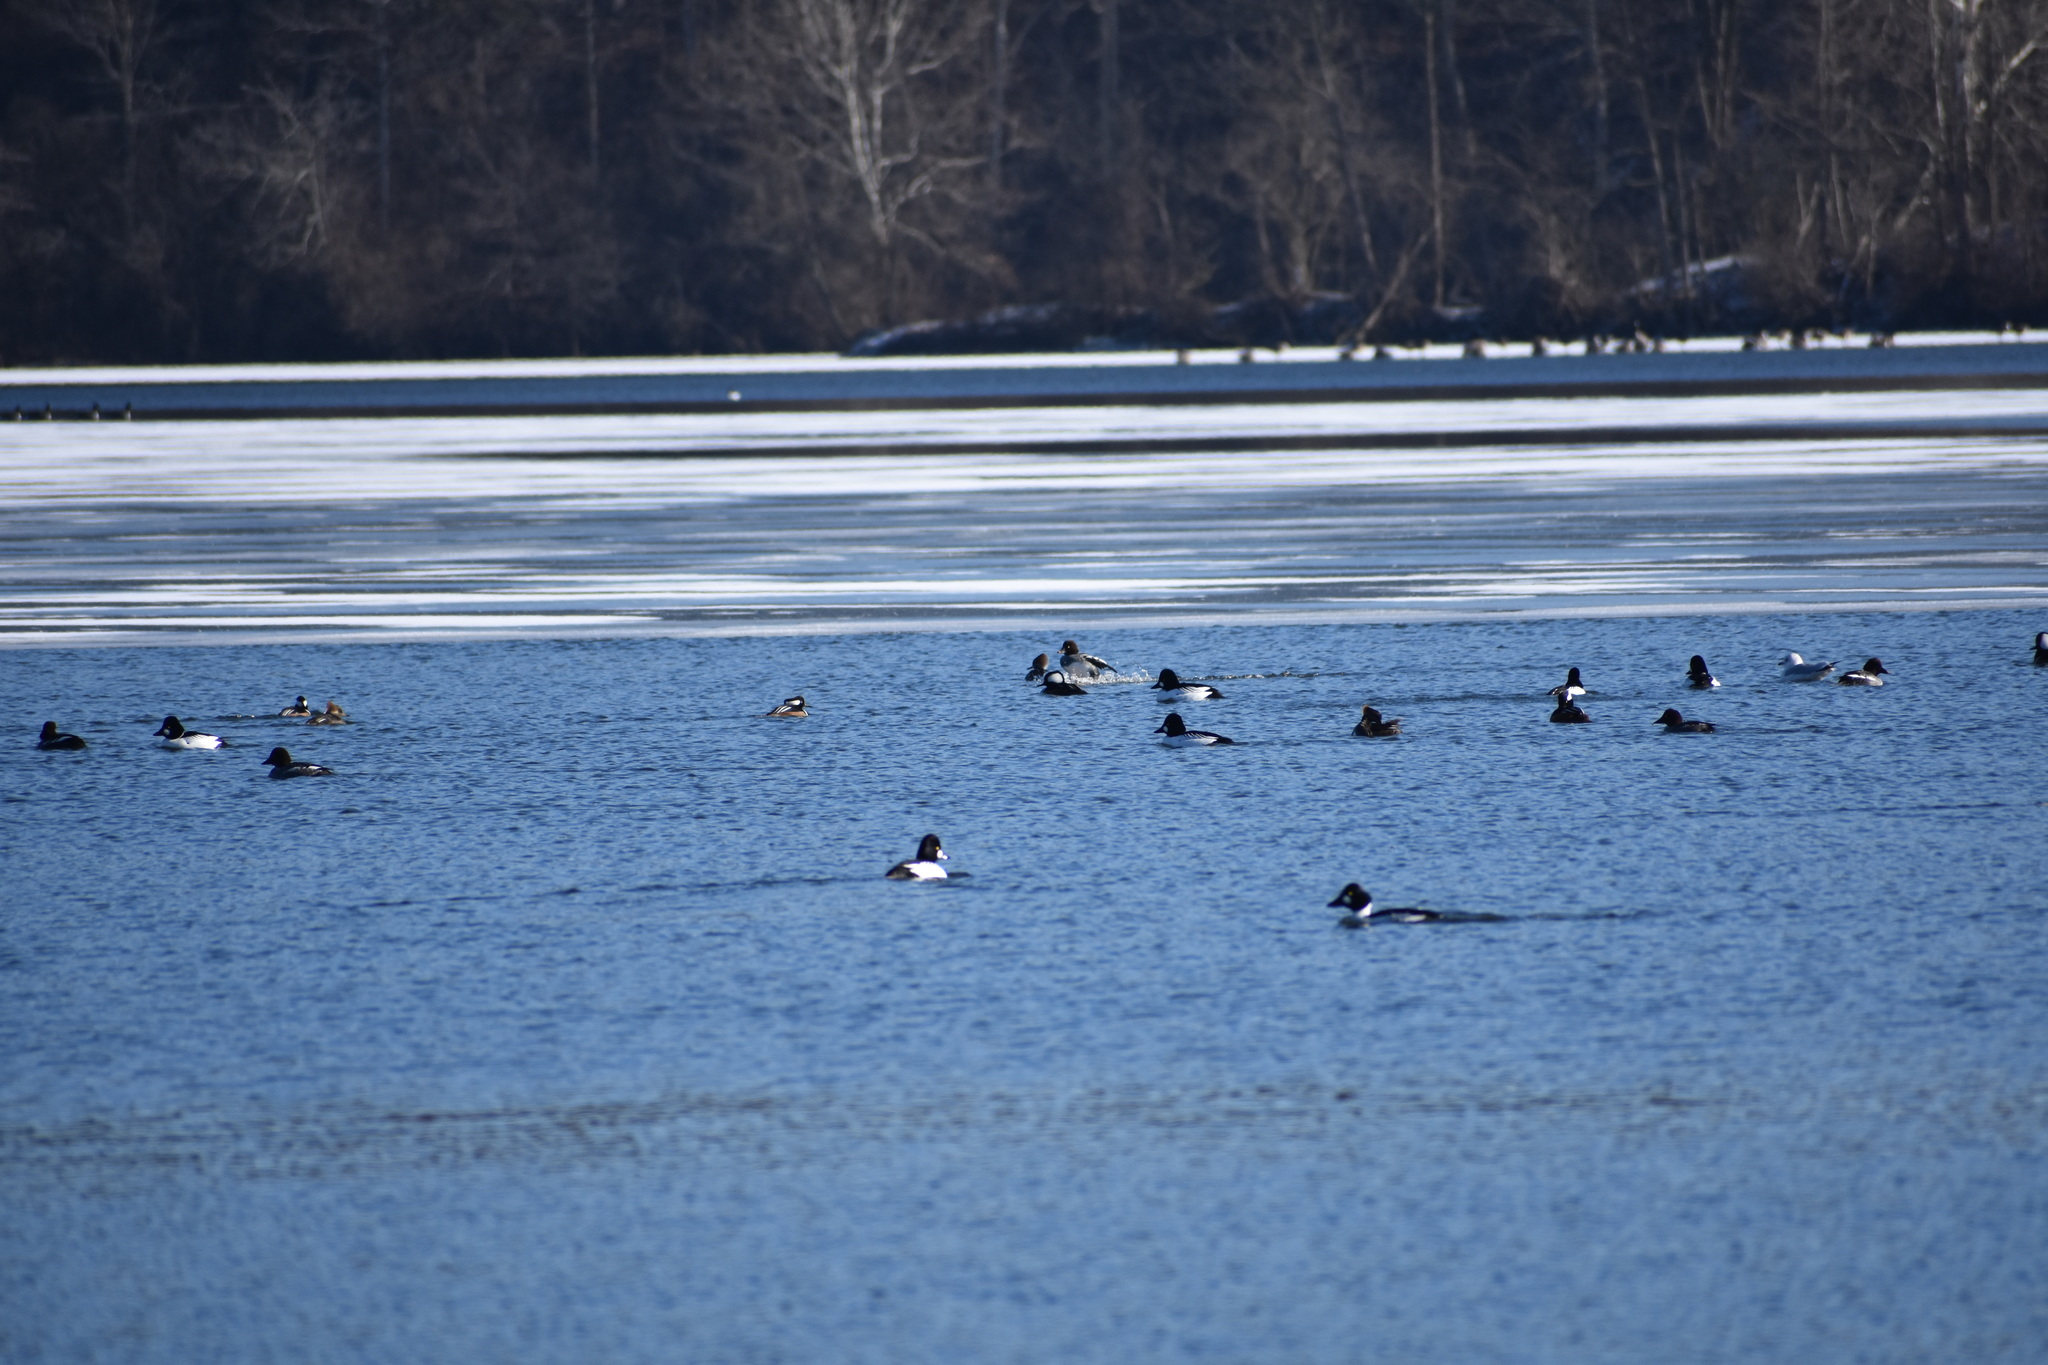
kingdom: Animalia
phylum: Chordata
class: Aves
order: Anseriformes
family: Anatidae
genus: Bucephala
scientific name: Bucephala clangula
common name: Common goldeneye
